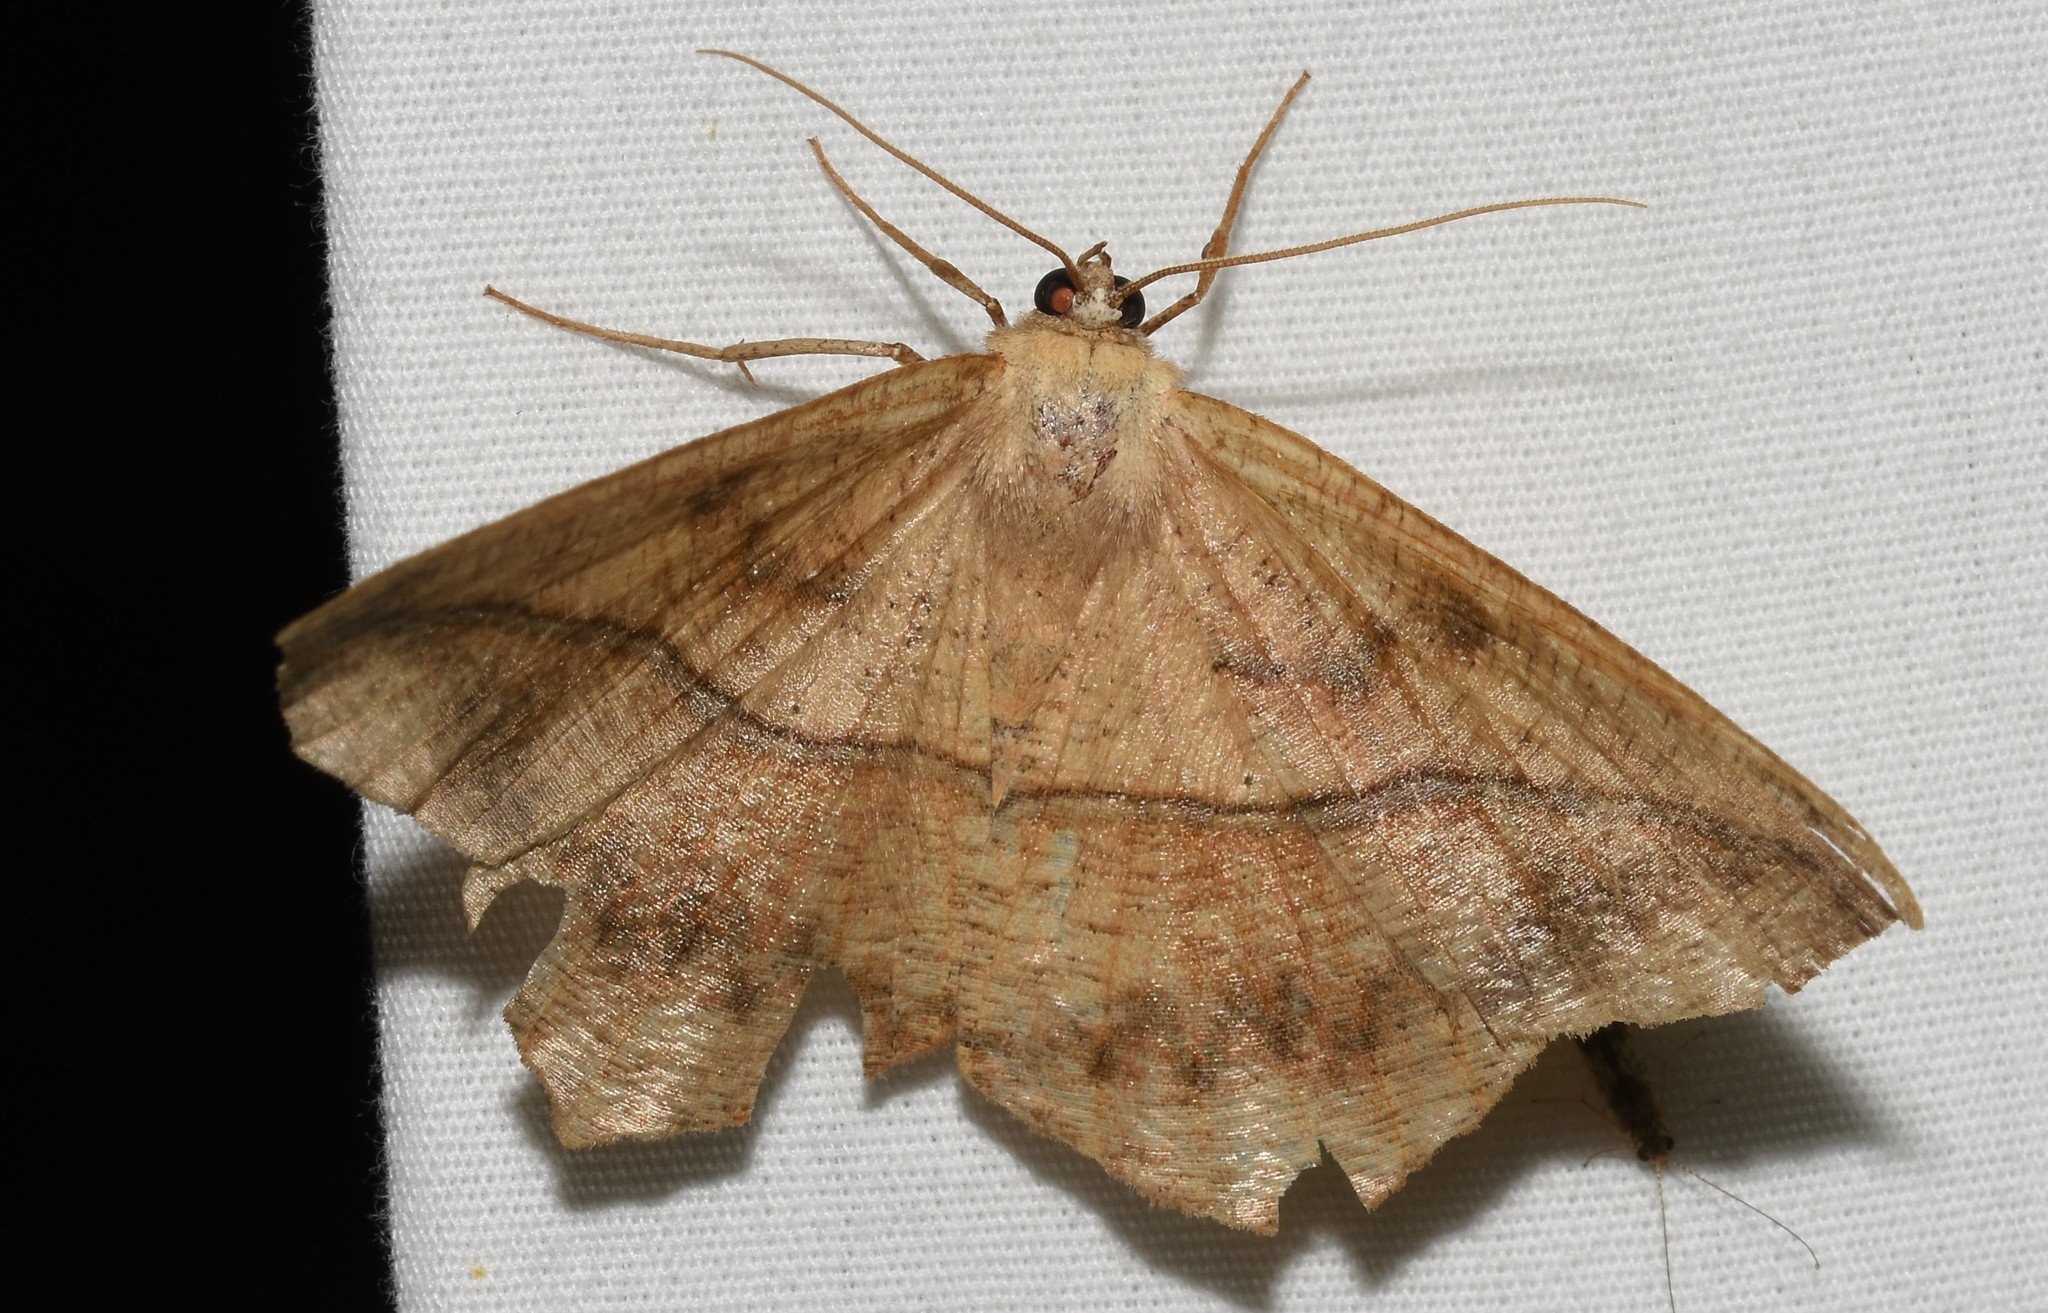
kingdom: Animalia
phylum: Arthropoda
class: Insecta
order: Lepidoptera
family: Geometridae
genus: Prochoerodes
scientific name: Prochoerodes lineola
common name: Large maple spanworm
